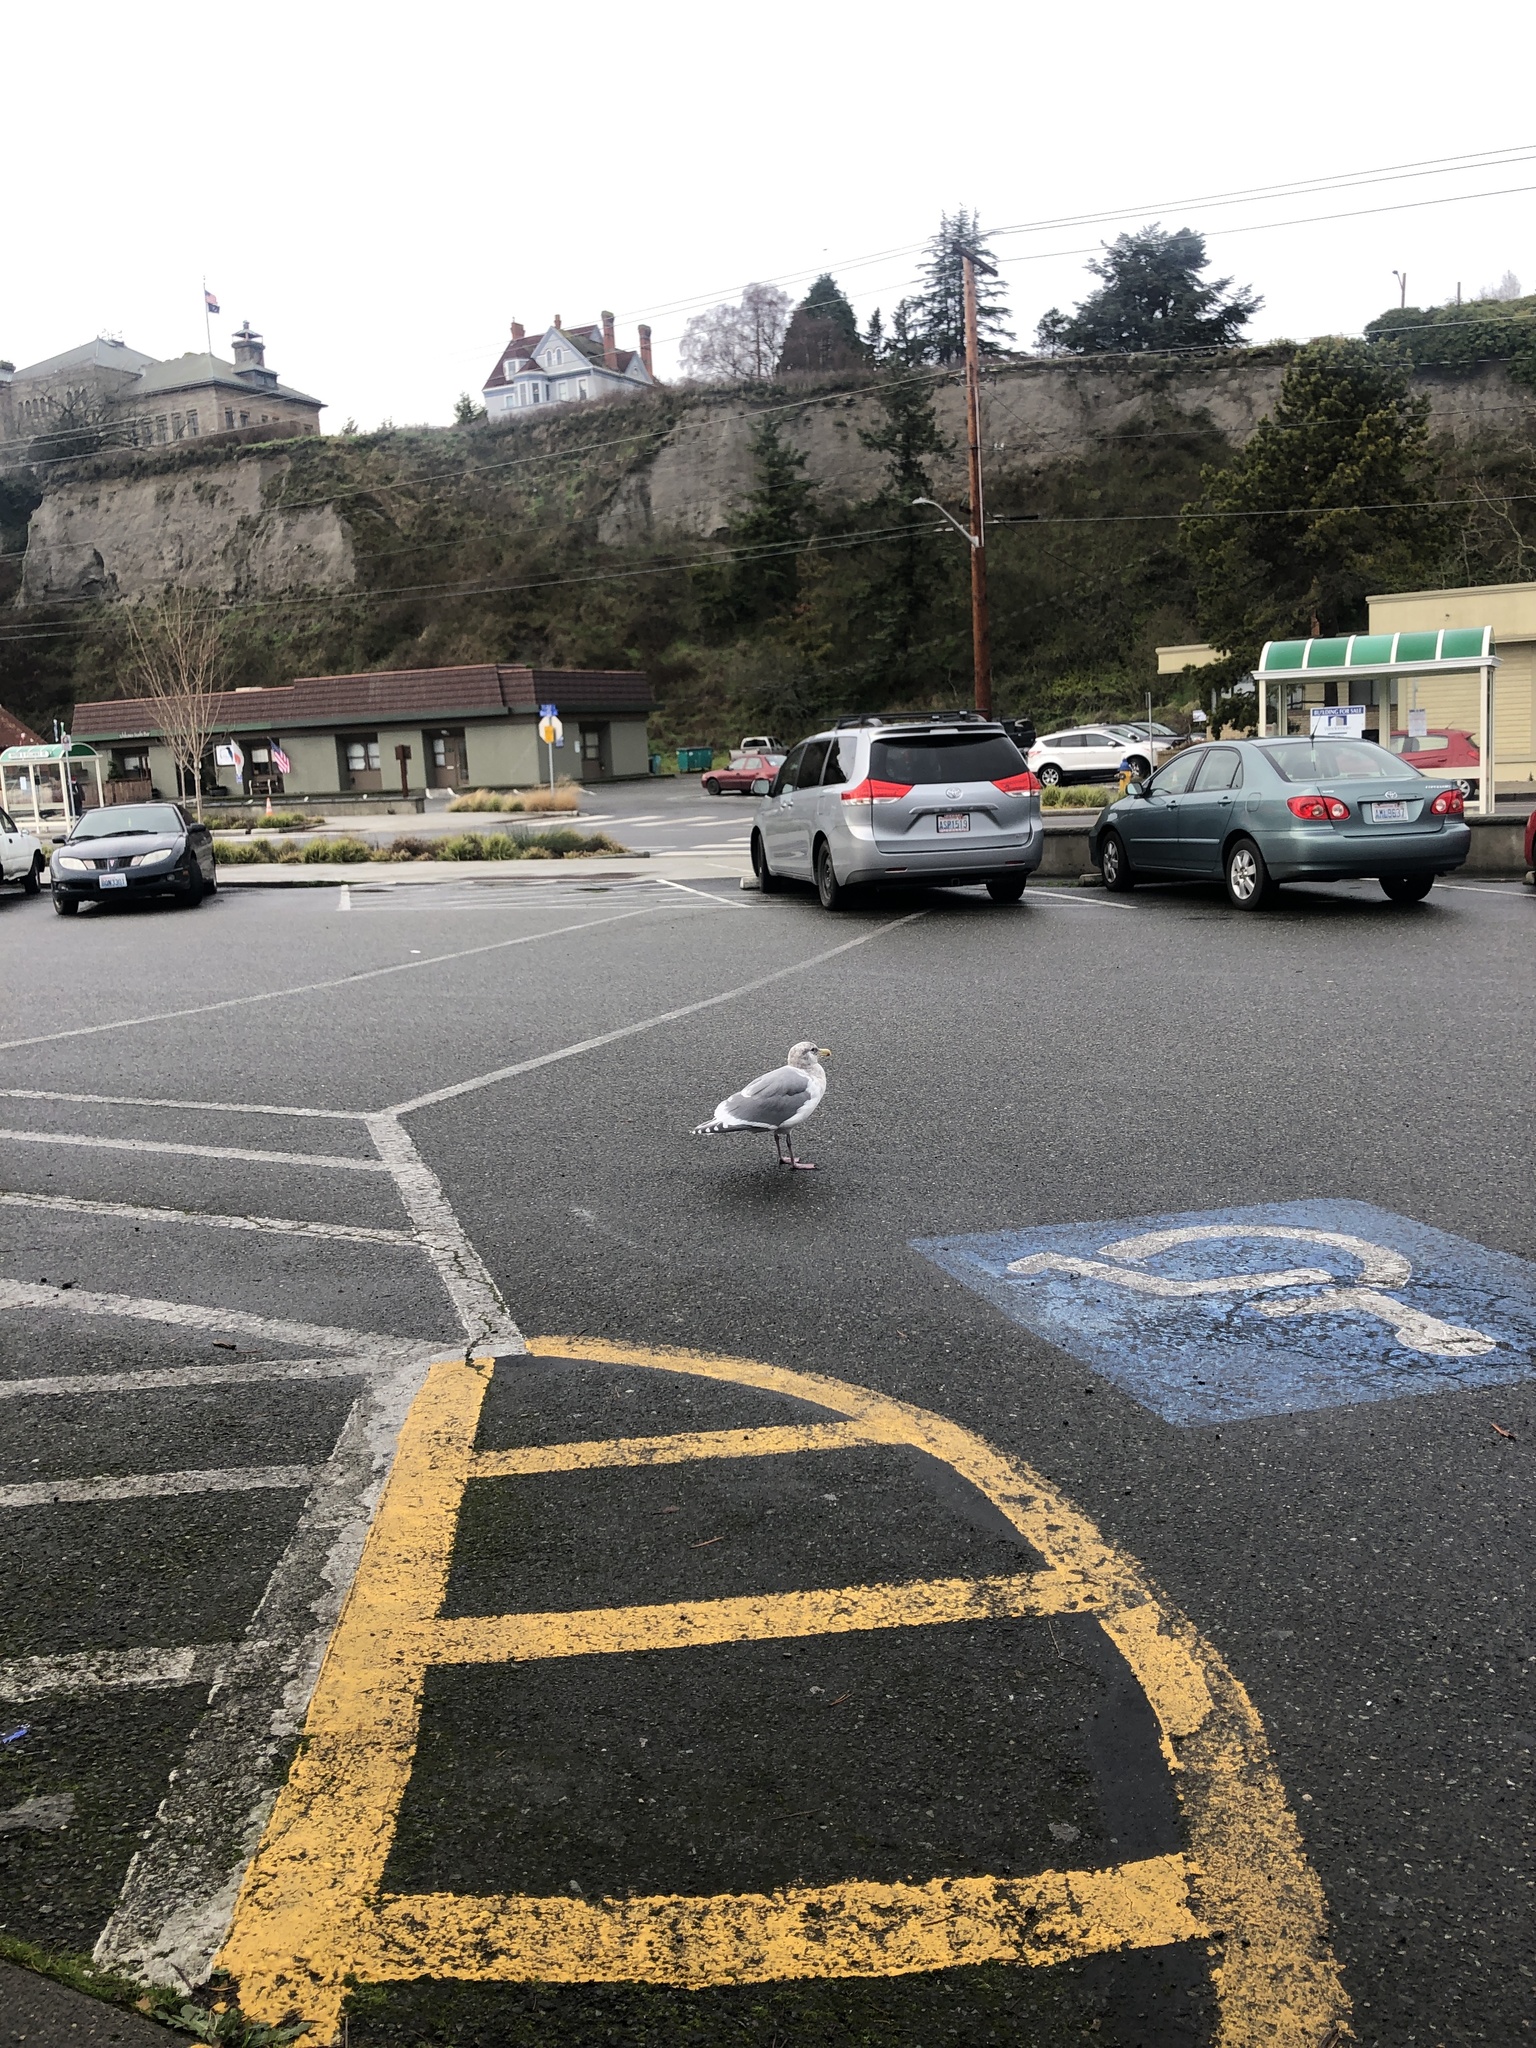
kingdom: Animalia
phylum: Chordata
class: Aves
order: Charadriiformes
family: Laridae
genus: Larus
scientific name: Larus
